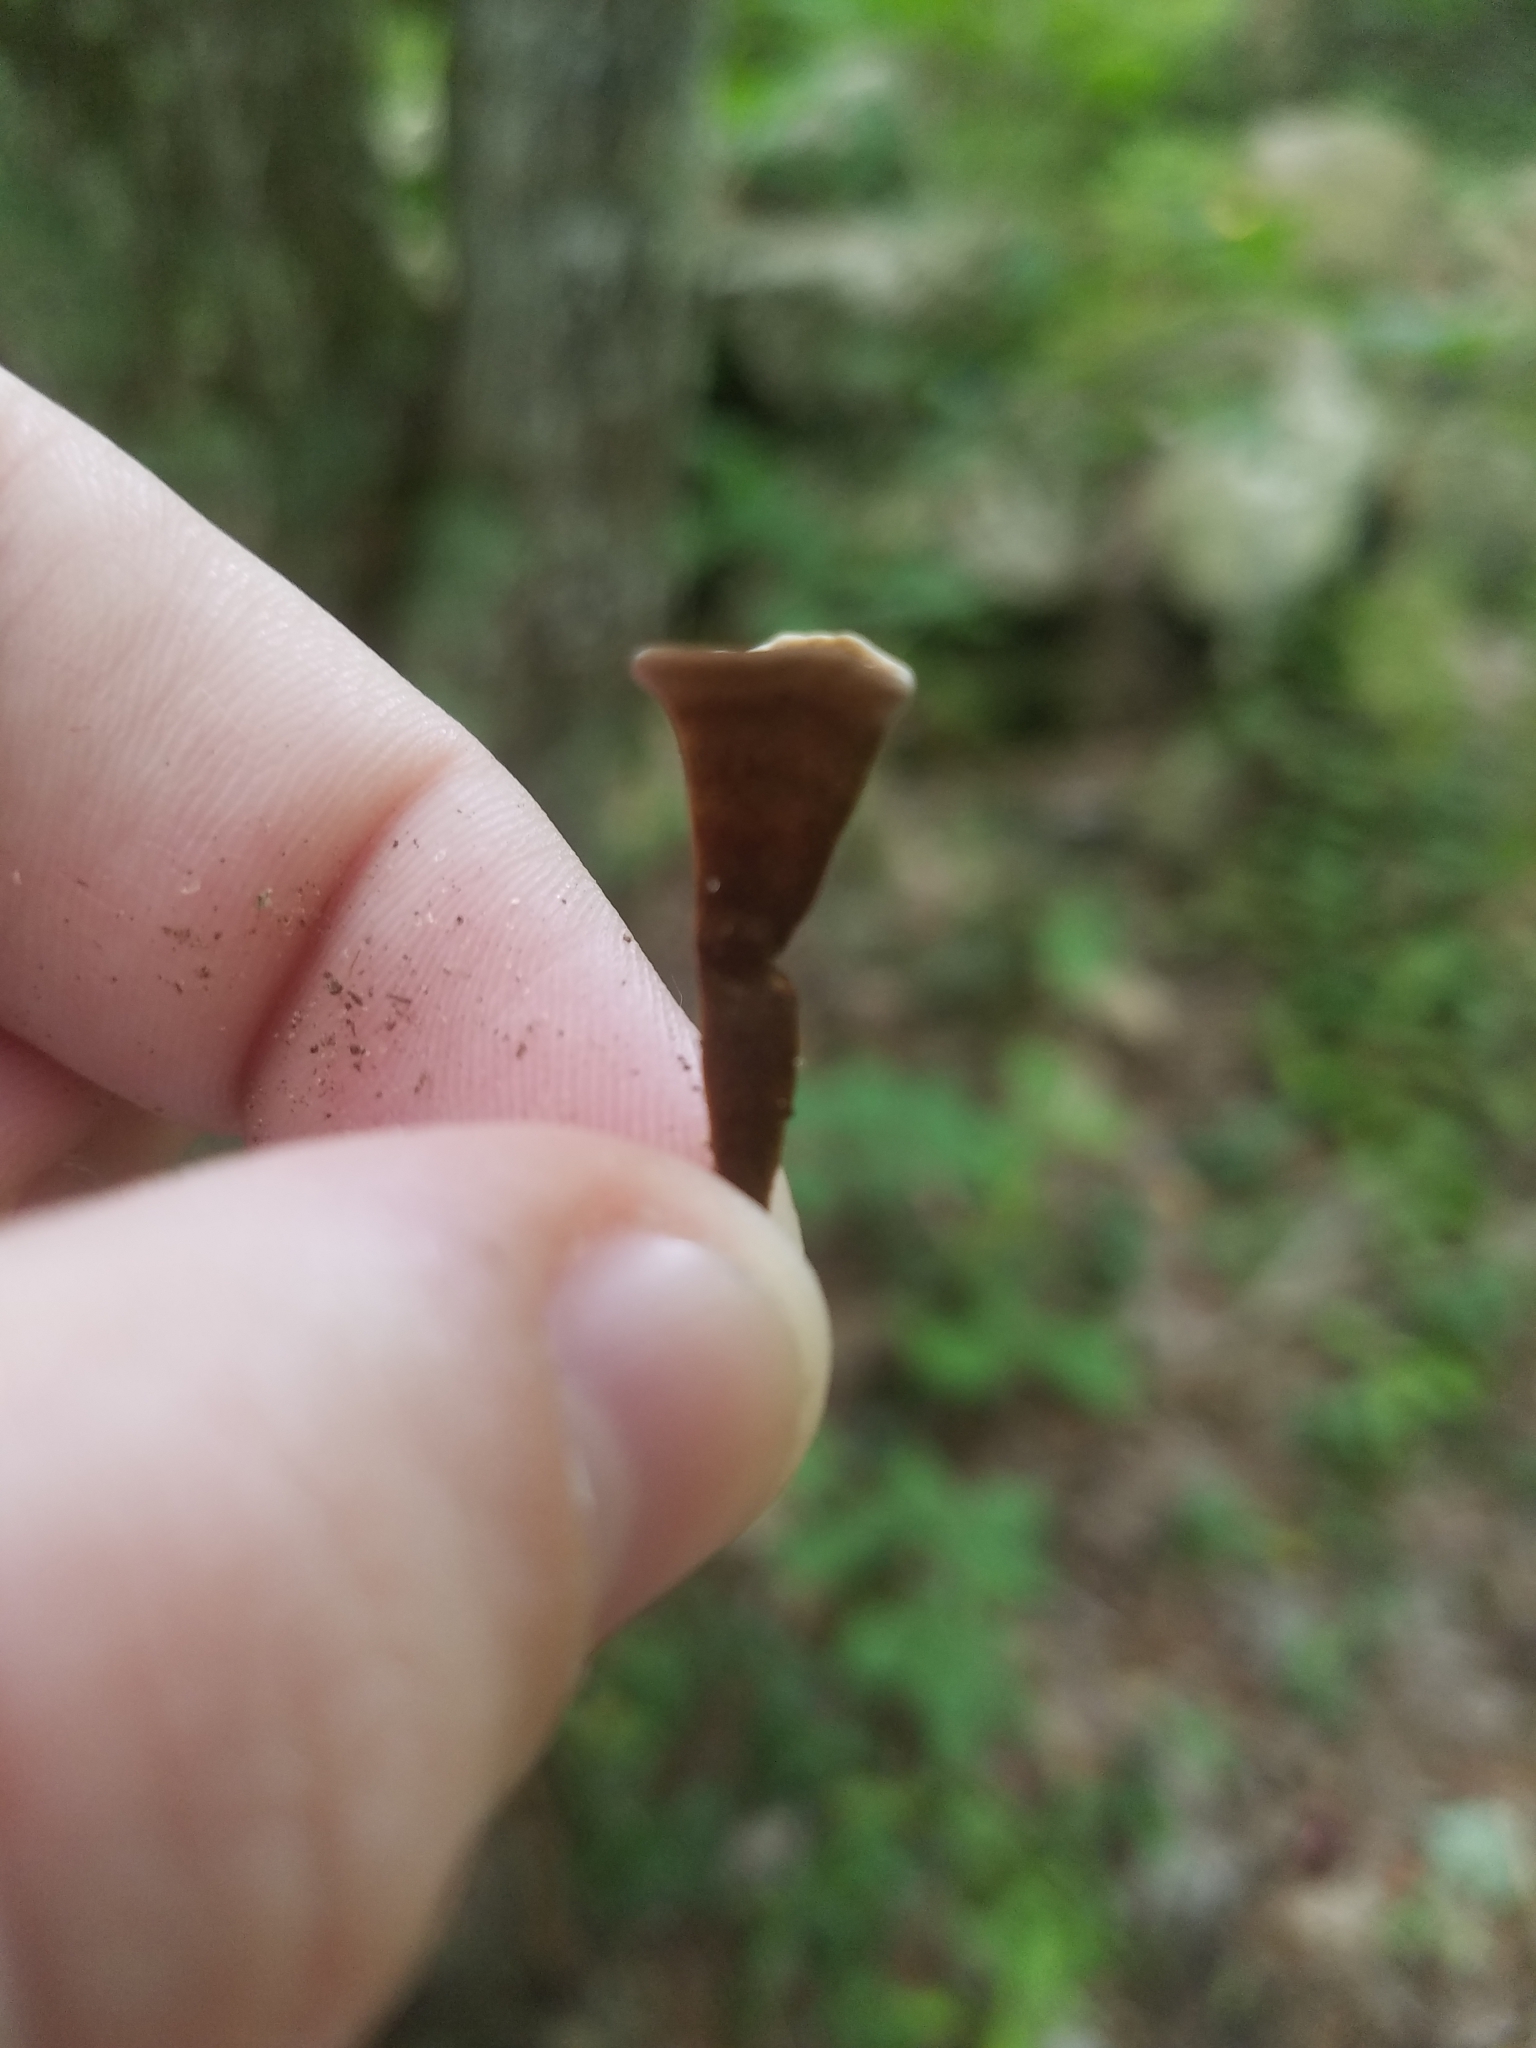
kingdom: Fungi
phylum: Basidiomycota
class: Agaricomycetes
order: Cantharellales
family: Hydnaceae
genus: Craterellus
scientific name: Craterellus cornucopioides
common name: Horn of plenty
